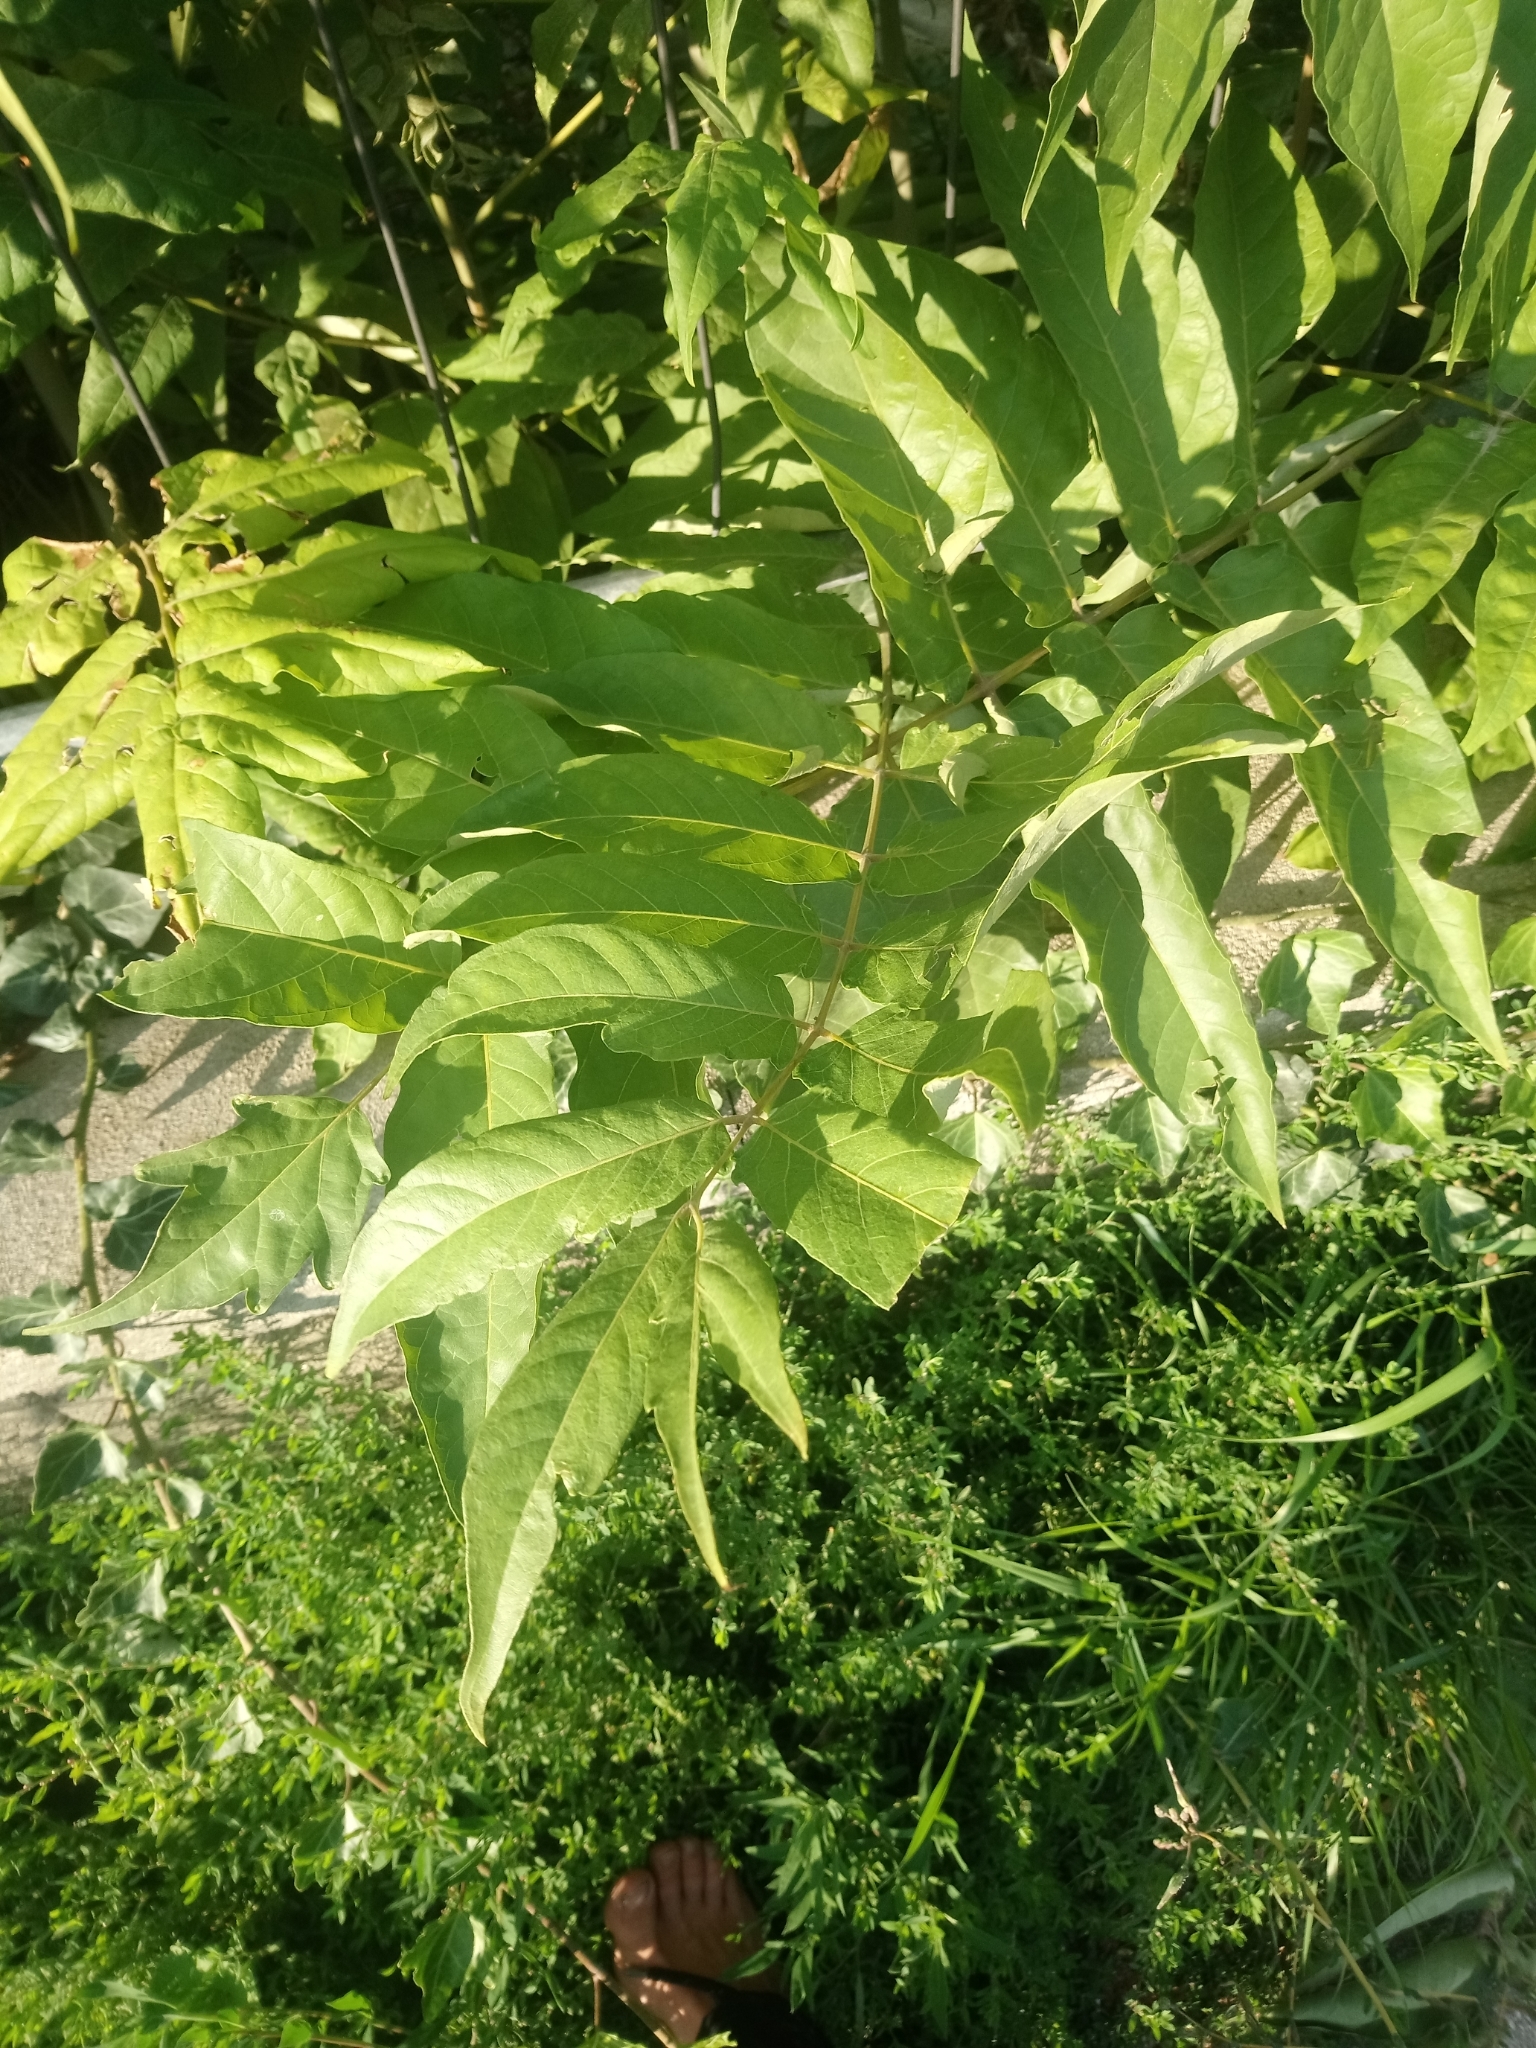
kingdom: Plantae
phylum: Tracheophyta
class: Magnoliopsida
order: Sapindales
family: Simaroubaceae
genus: Ailanthus
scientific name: Ailanthus altissima
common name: Tree-of-heaven
